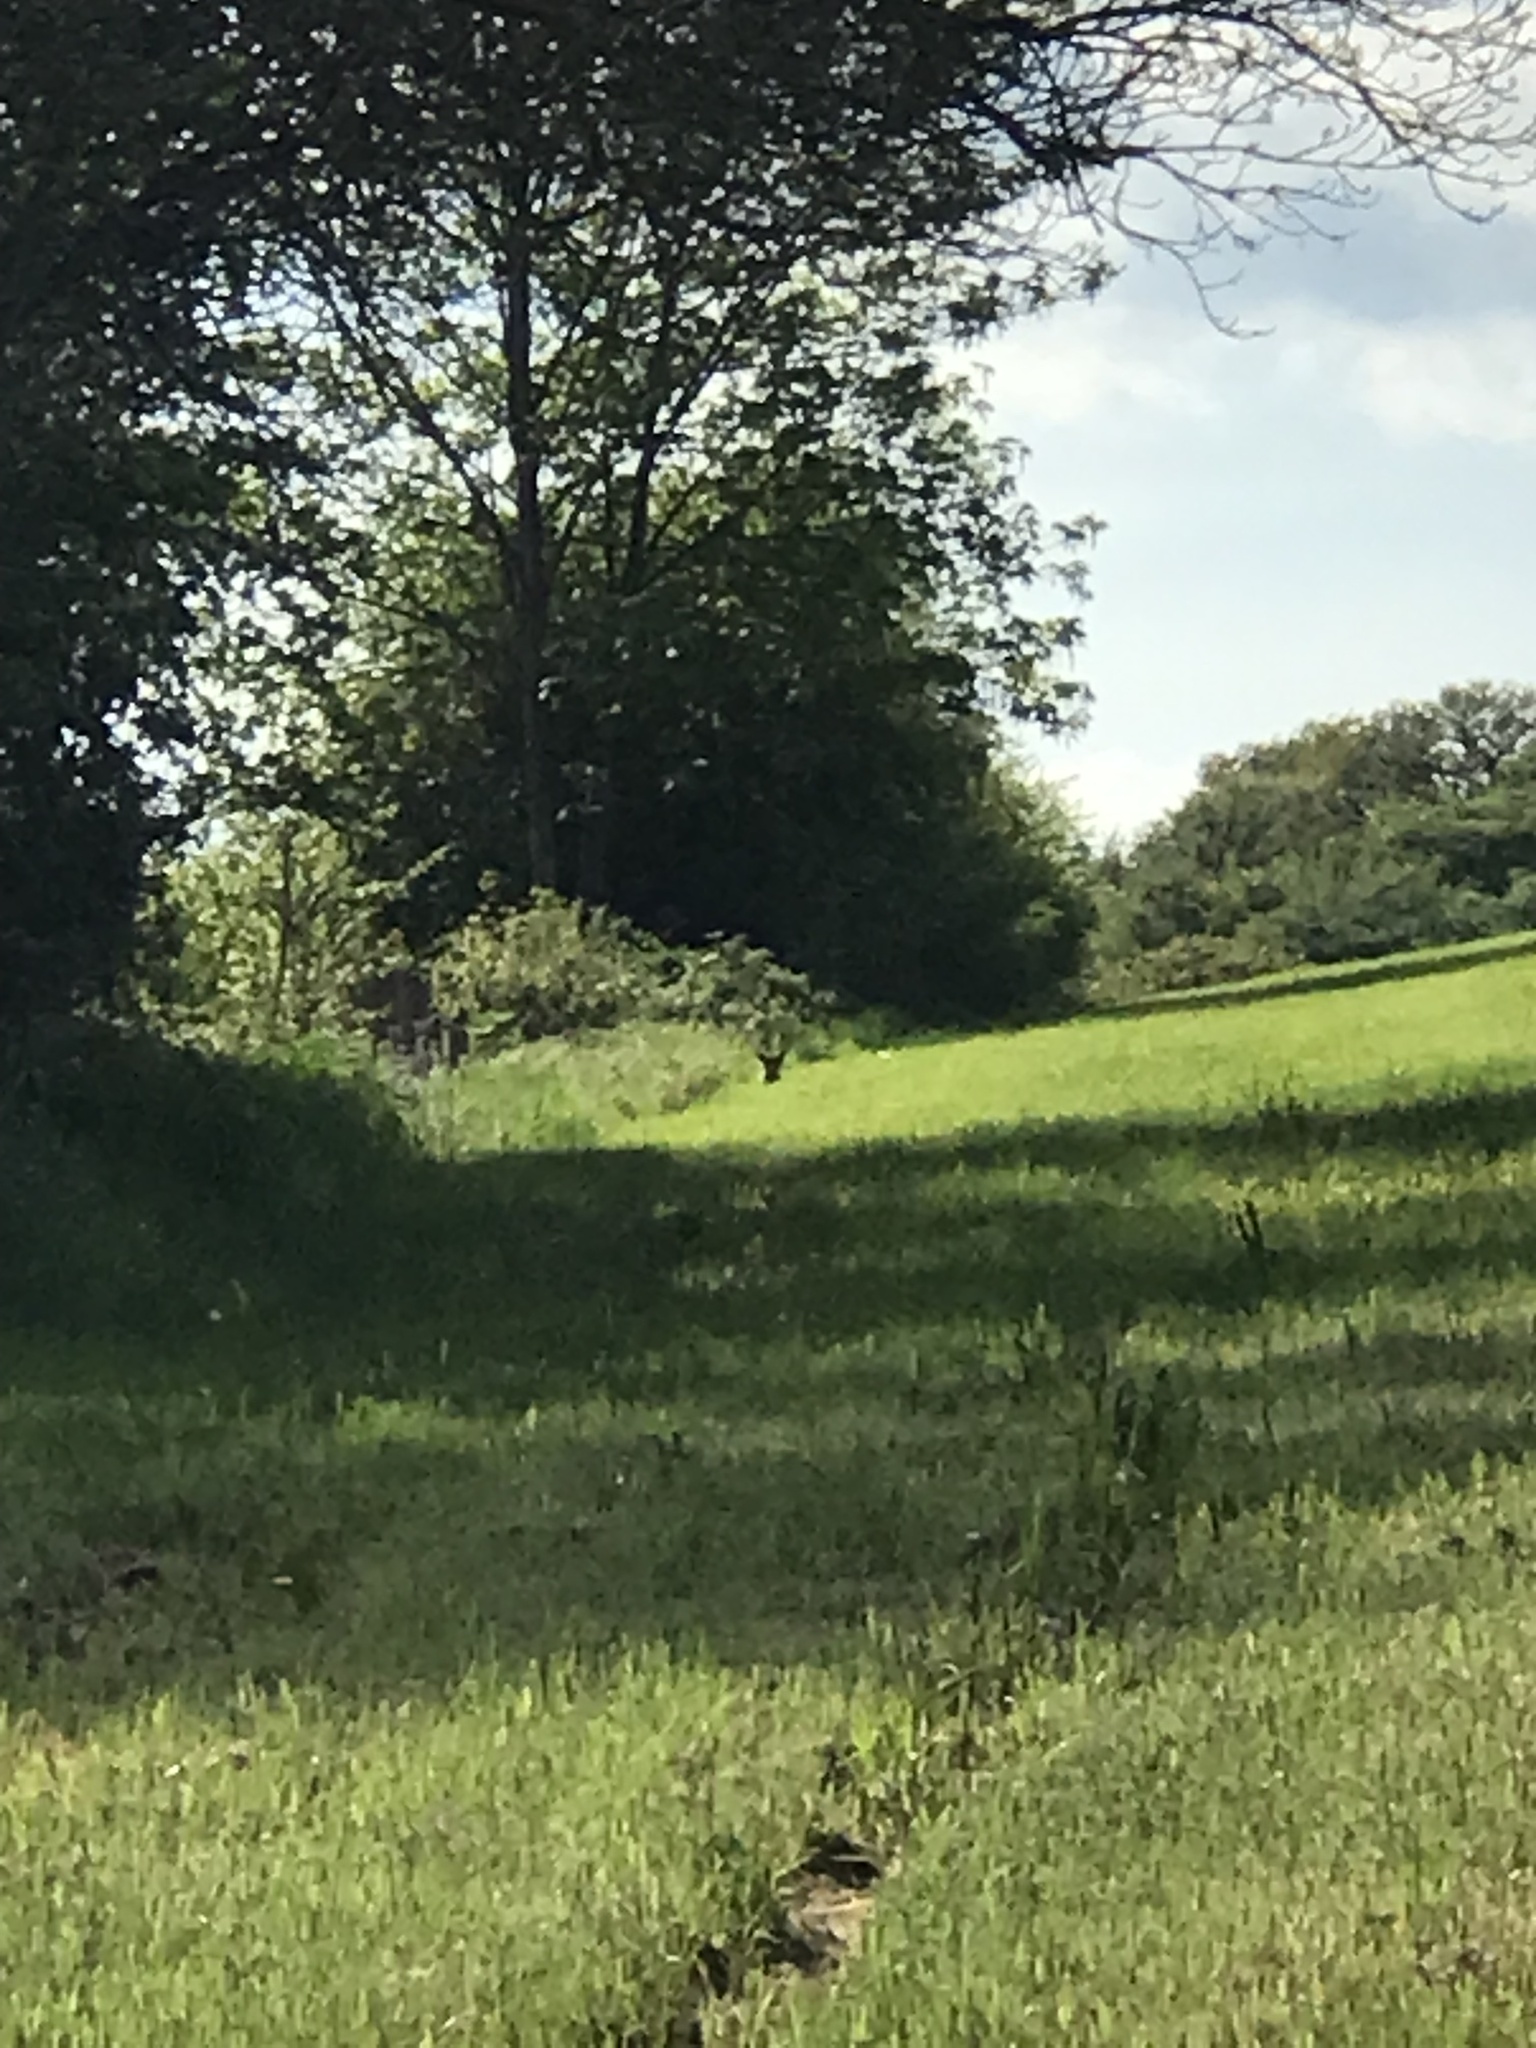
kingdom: Animalia
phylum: Chordata
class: Mammalia
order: Carnivora
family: Canidae
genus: Vulpes
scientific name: Vulpes vulpes
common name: Red fox
